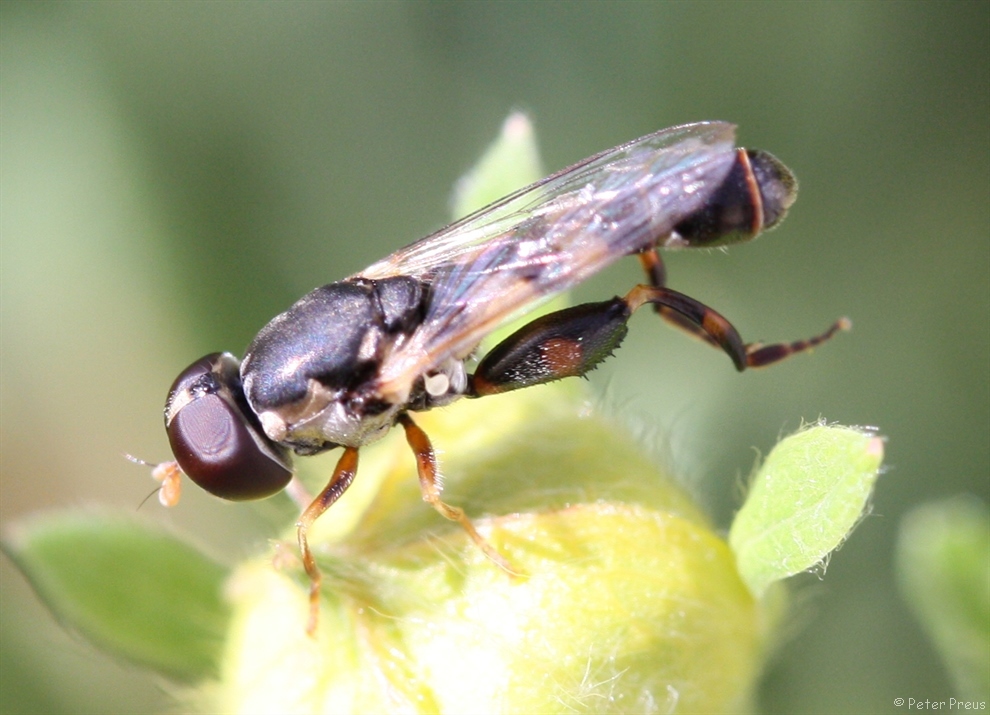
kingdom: Animalia
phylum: Arthropoda
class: Insecta
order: Diptera
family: Syrphidae
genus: Syritta
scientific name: Syritta pipiens
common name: Hover fly
